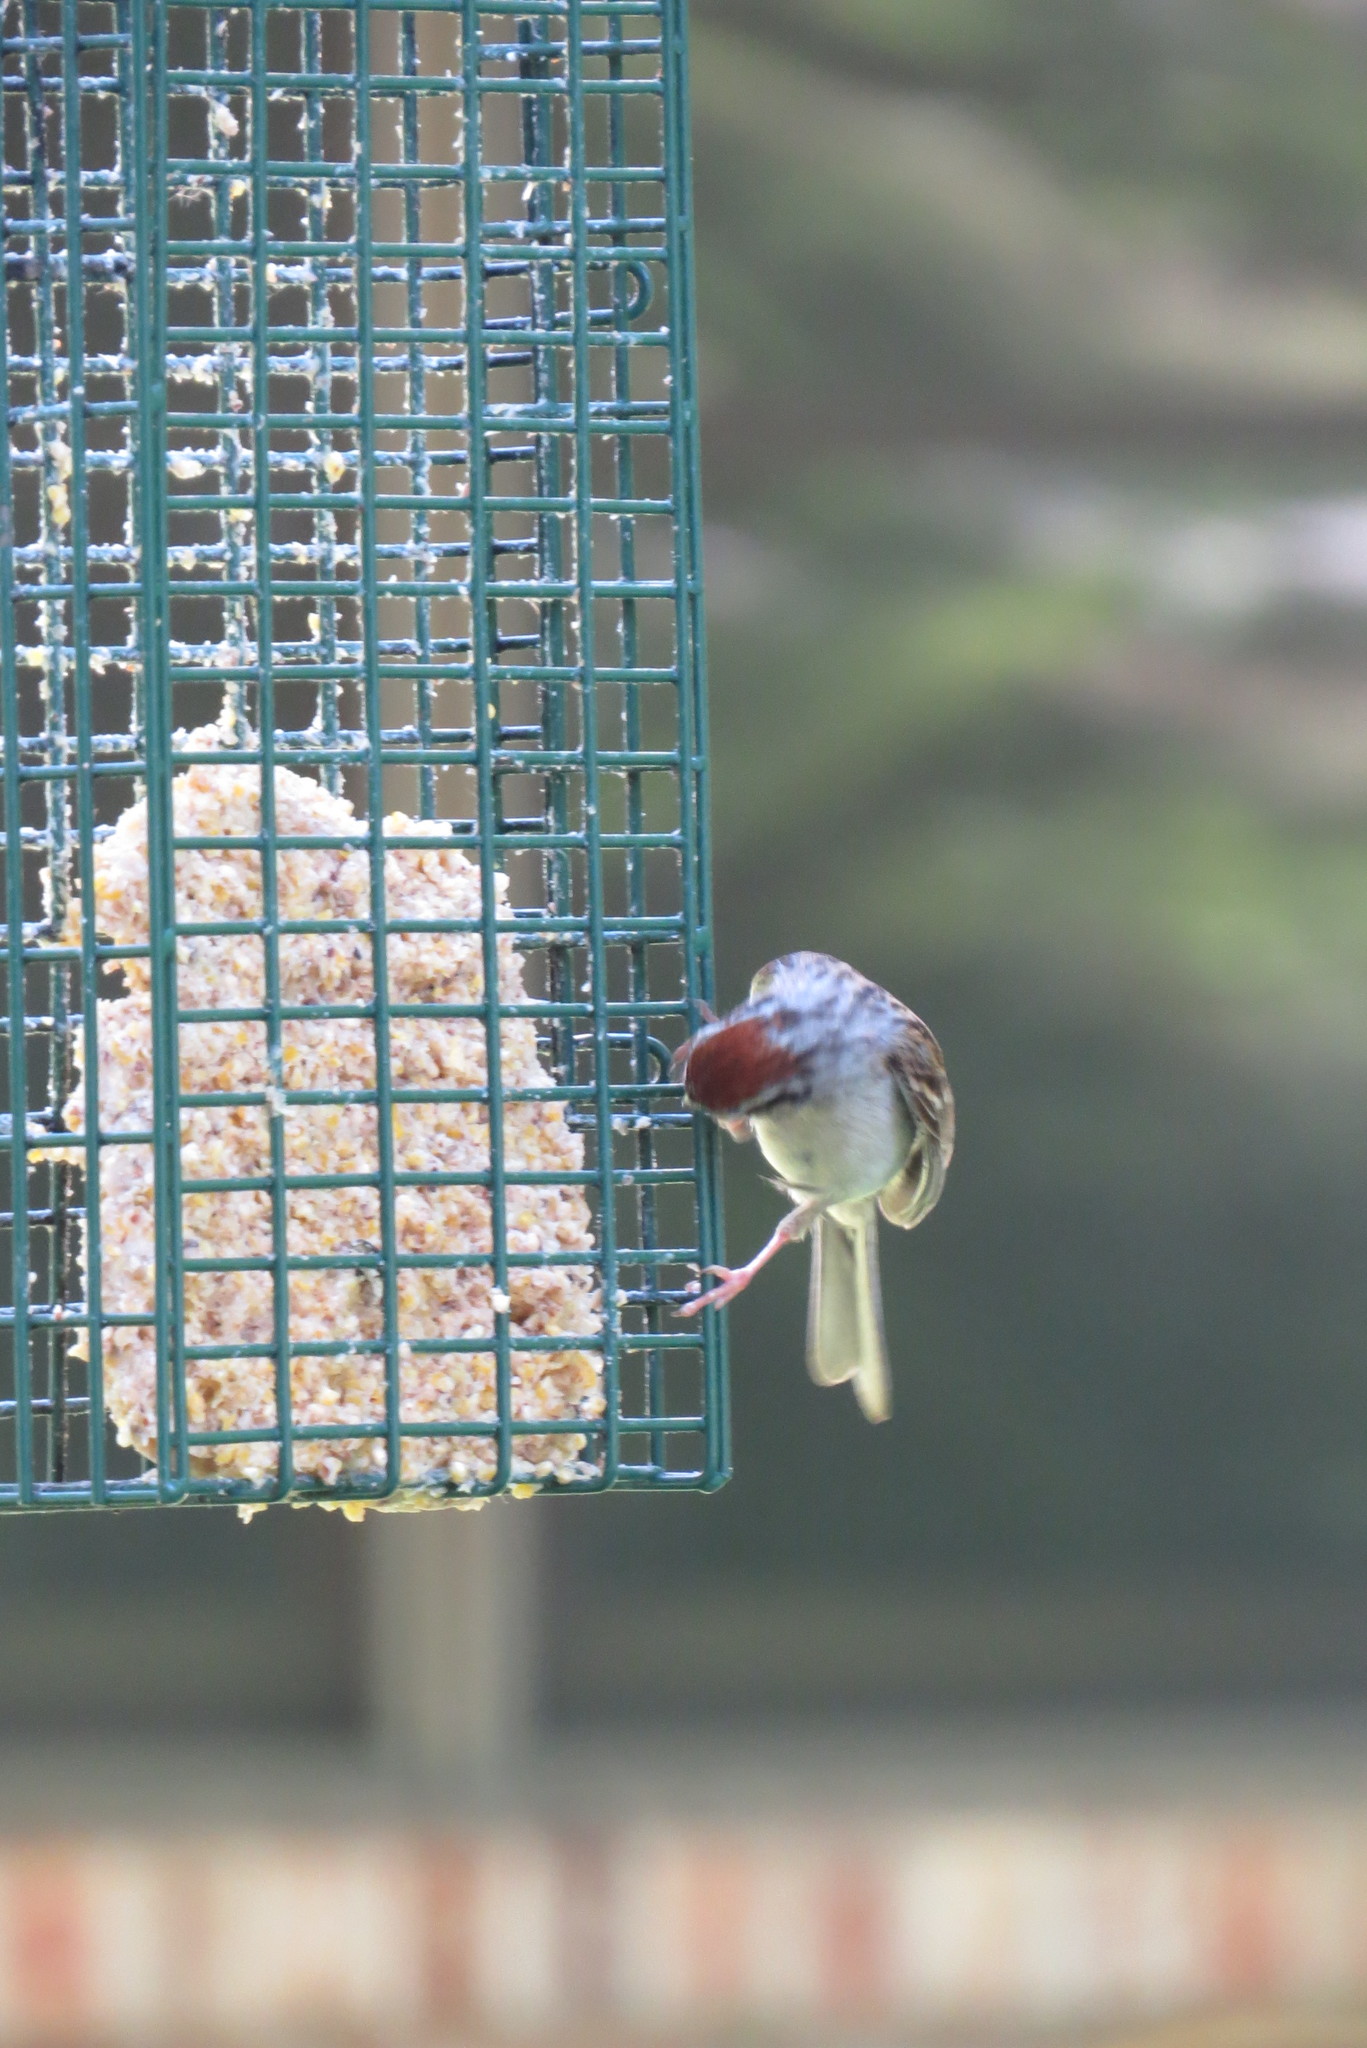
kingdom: Animalia
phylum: Chordata
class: Aves
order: Passeriformes
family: Passerellidae
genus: Spizella
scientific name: Spizella passerina
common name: Chipping sparrow
